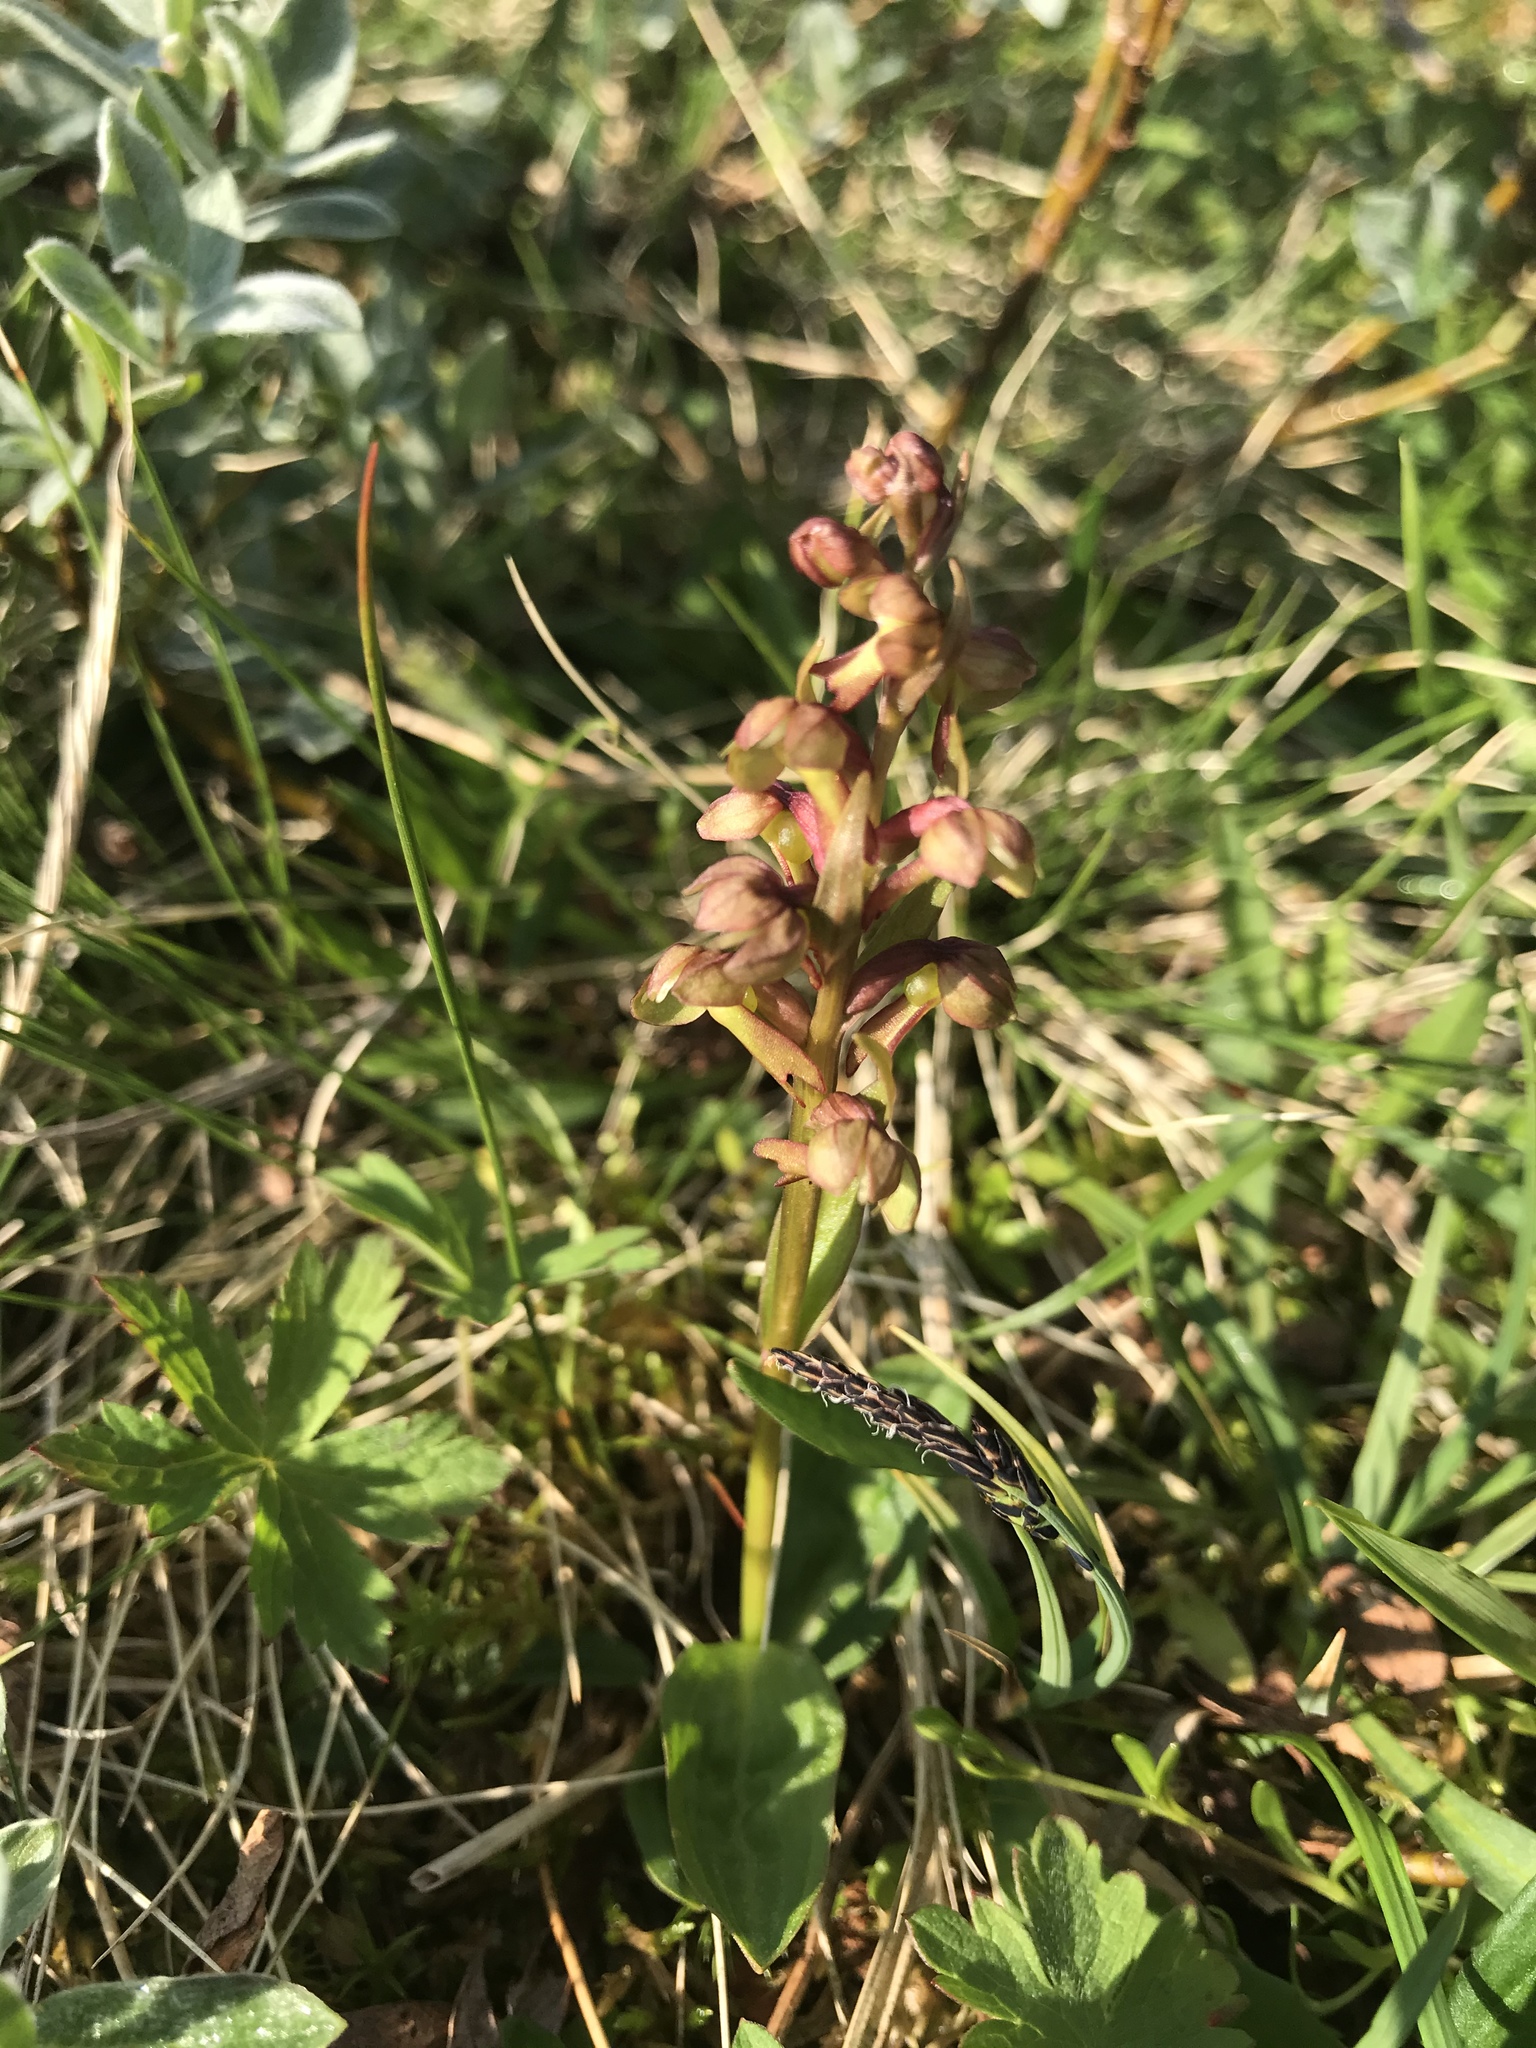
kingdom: Plantae
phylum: Tracheophyta
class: Liliopsida
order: Asparagales
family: Orchidaceae
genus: Dactylorhiza
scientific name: Dactylorhiza viridis
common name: Longbract frog orchid
